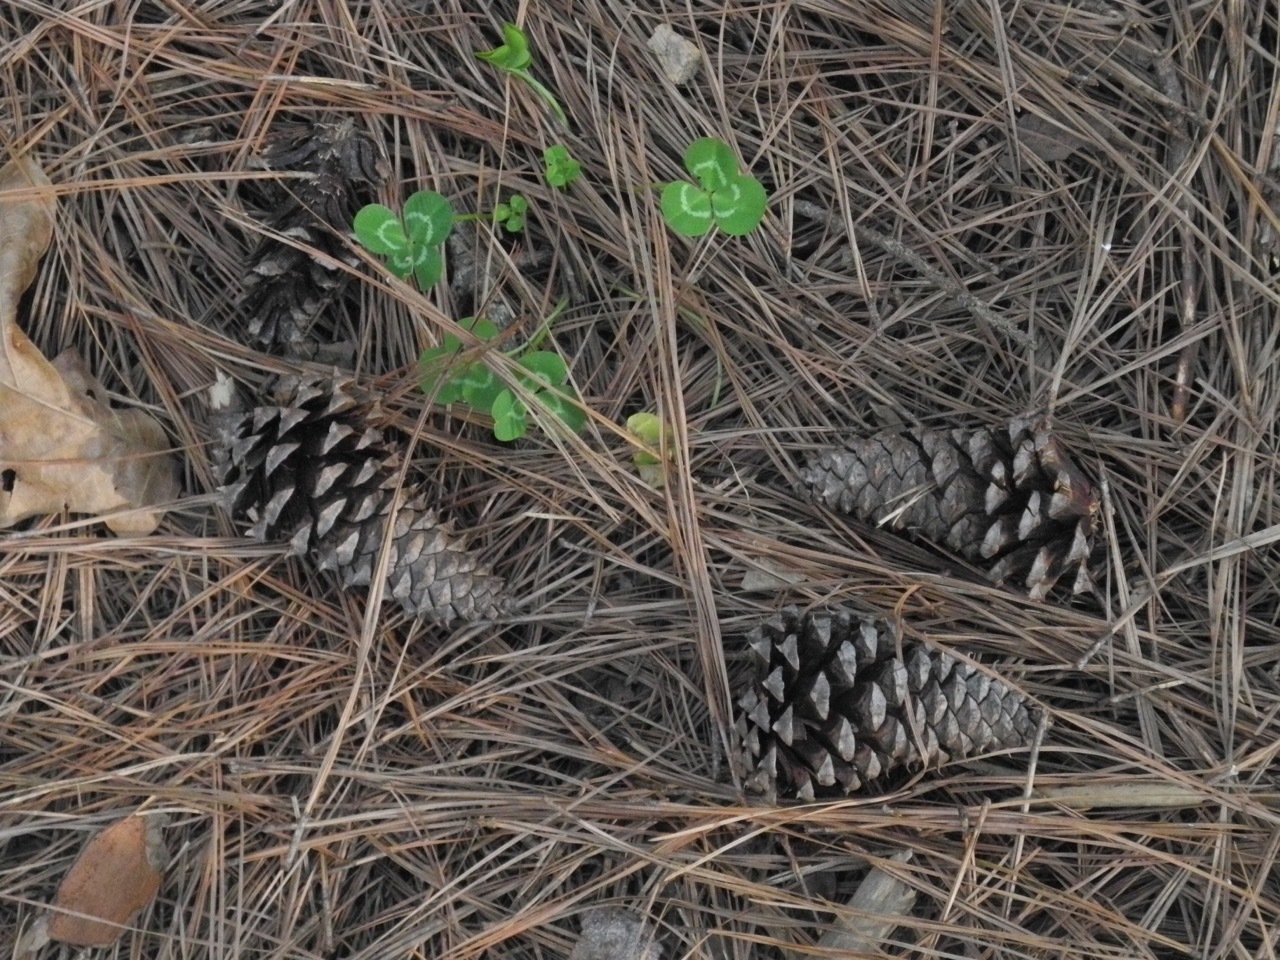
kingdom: Plantae
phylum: Tracheophyta
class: Pinopsida
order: Pinales
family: Pinaceae
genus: Pinus
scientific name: Pinus taeda
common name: Loblolly pine
